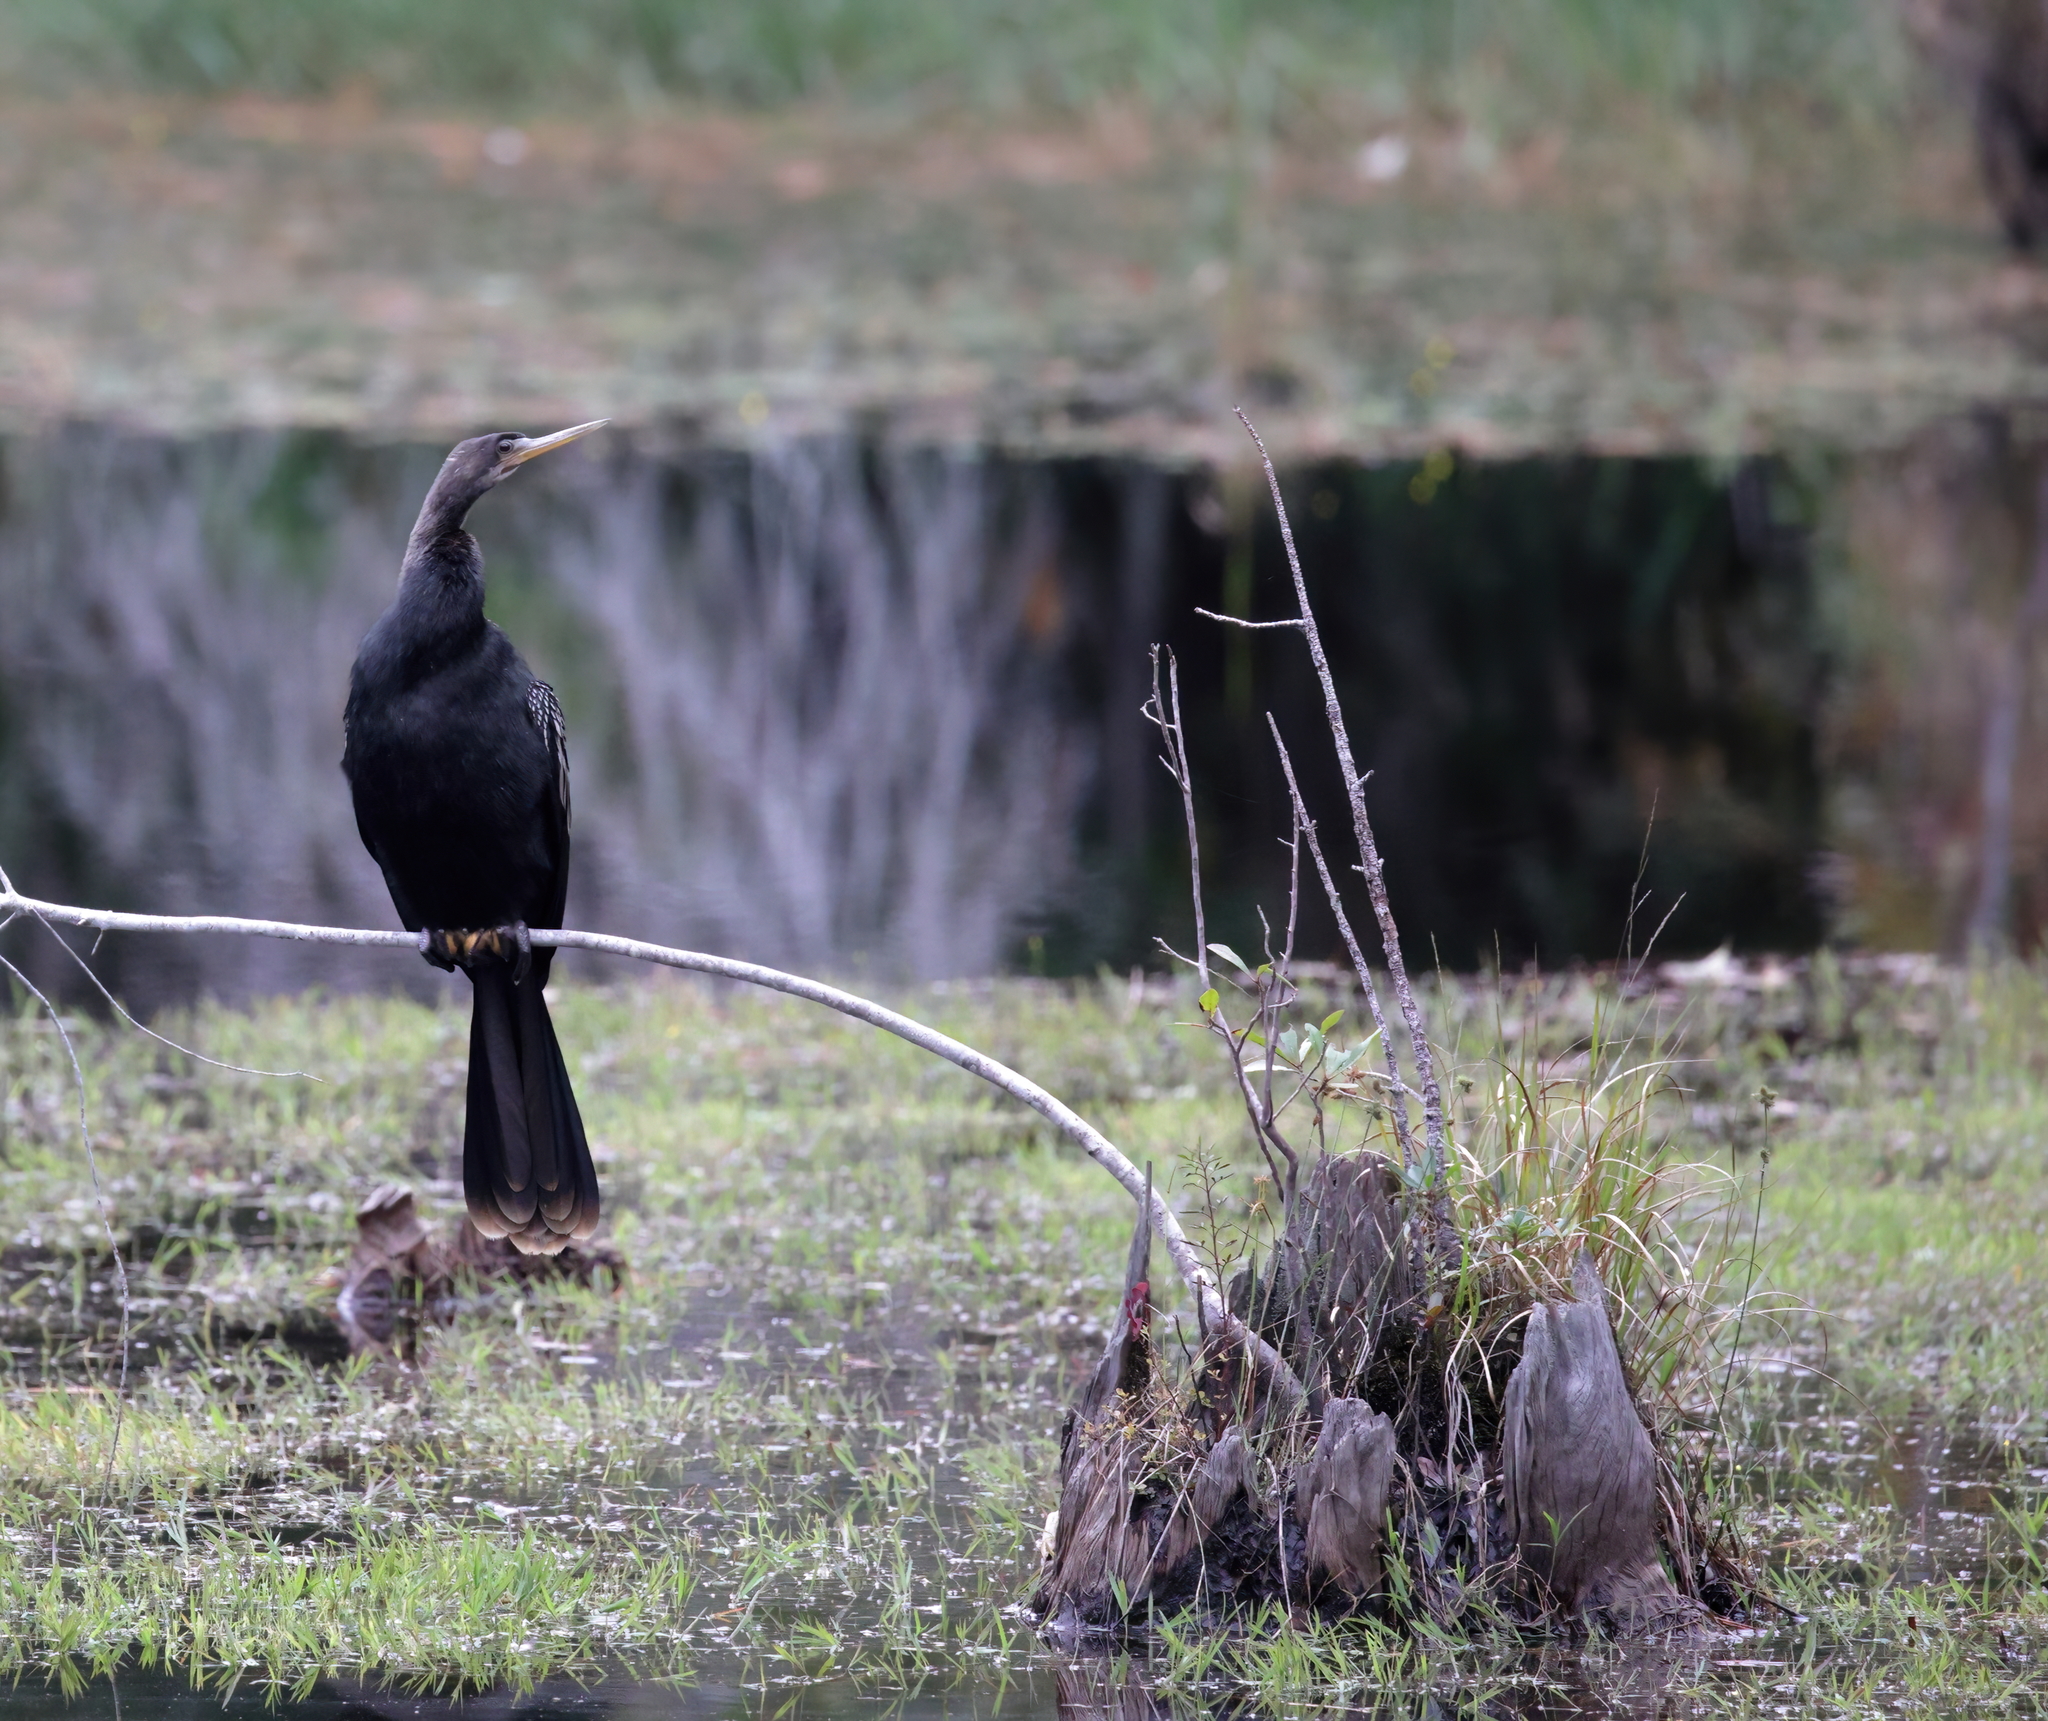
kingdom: Animalia
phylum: Chordata
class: Aves
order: Suliformes
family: Anhingidae
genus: Anhinga
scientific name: Anhinga anhinga
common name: Anhinga
